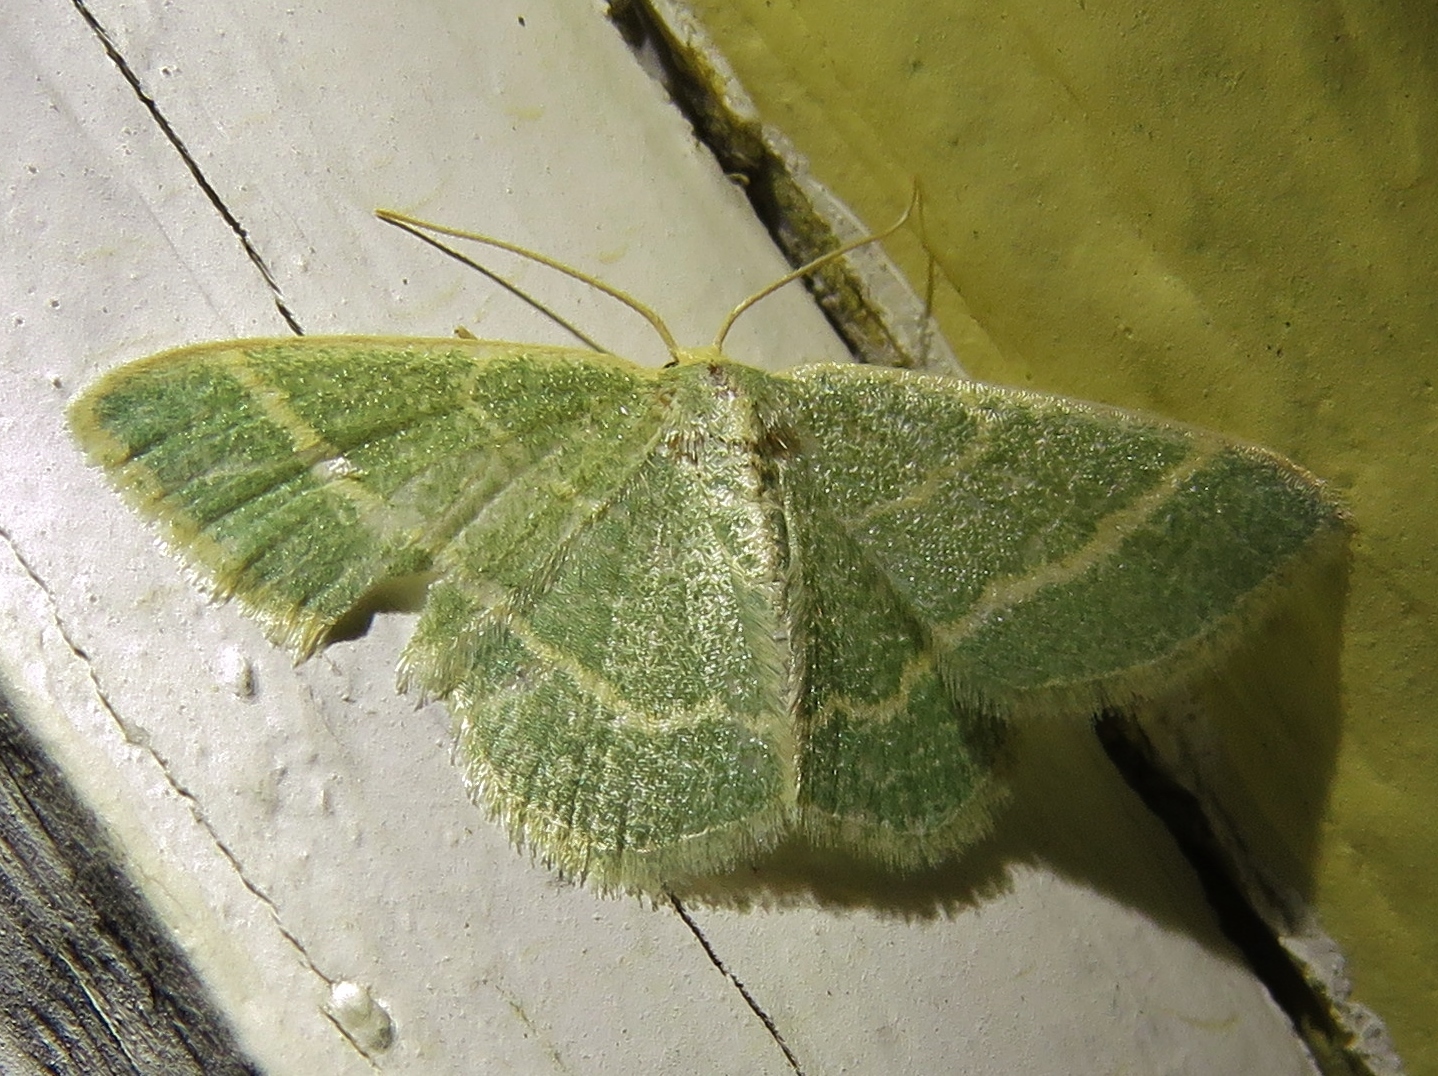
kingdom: Animalia
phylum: Arthropoda
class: Insecta
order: Lepidoptera
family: Geometridae
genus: Chlorochlamys
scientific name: Chlorochlamys chloroleucaria
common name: Blackberry looper
